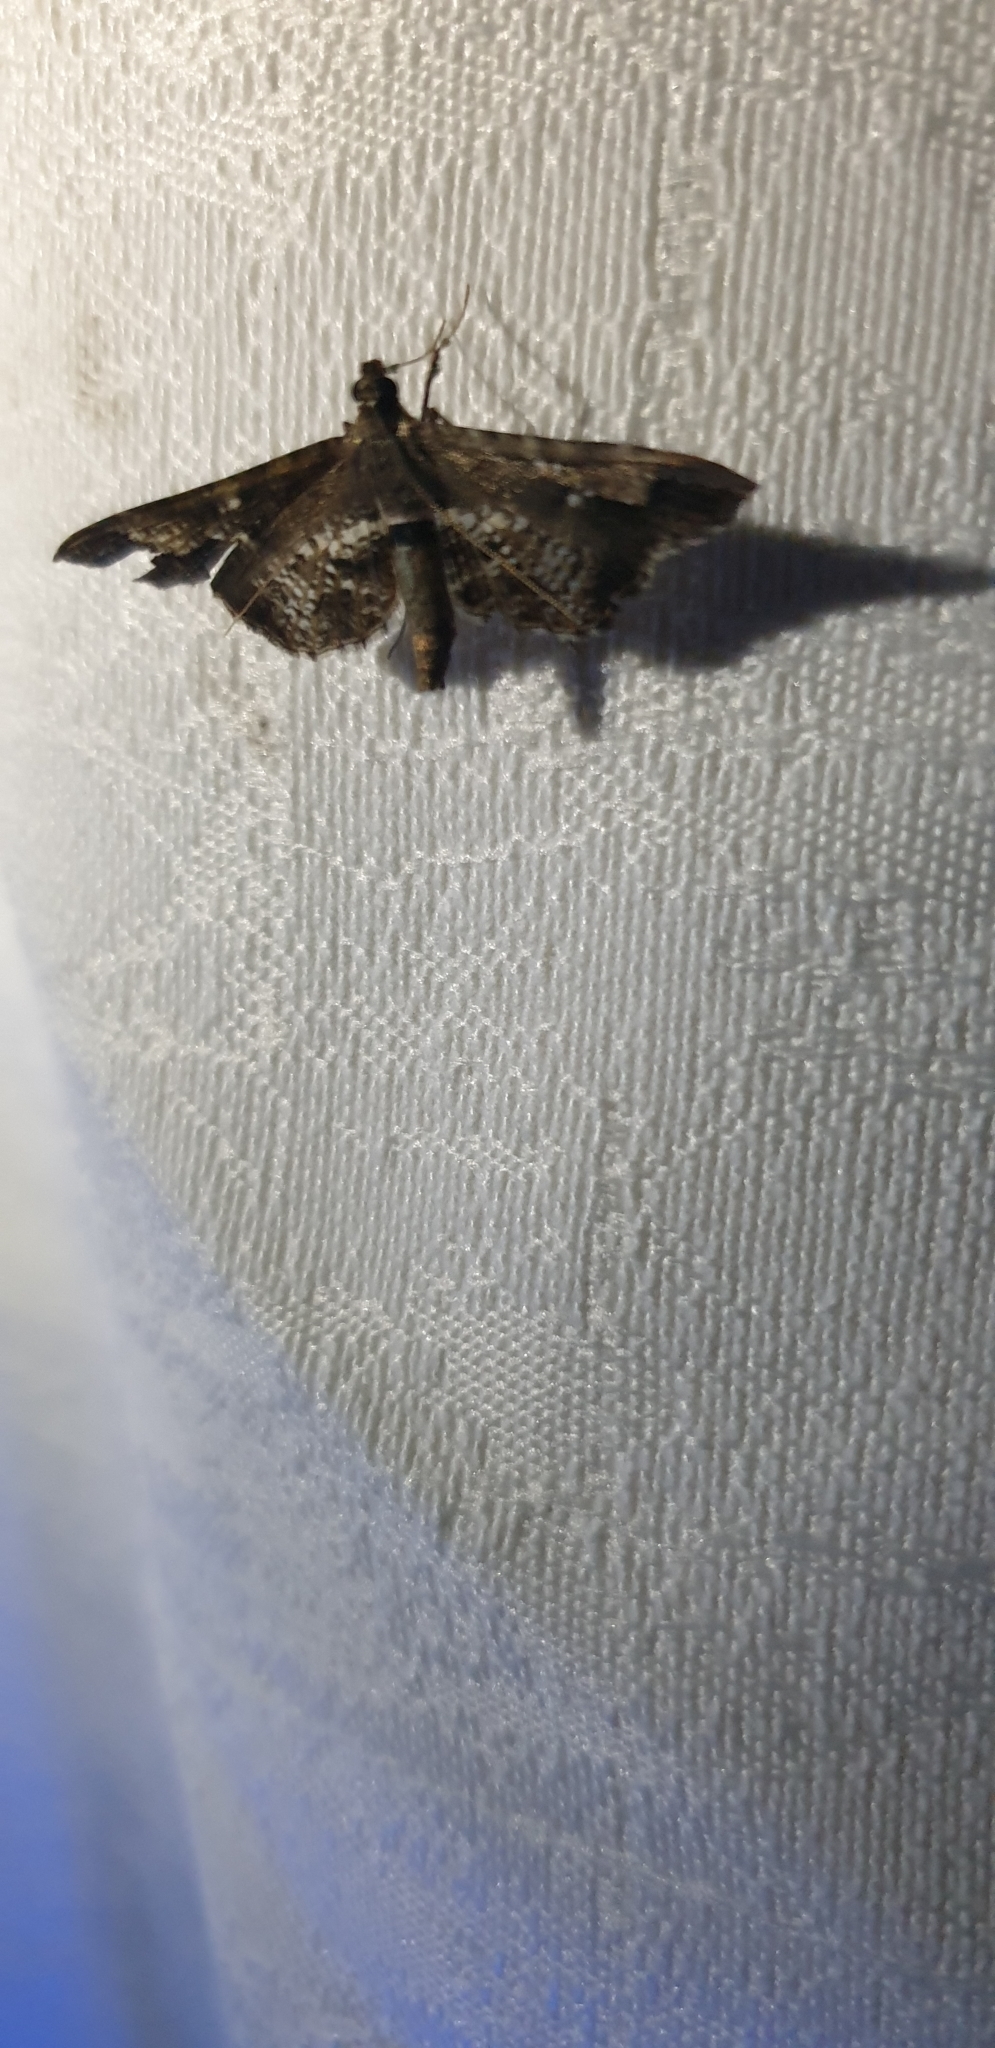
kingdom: Animalia
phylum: Arthropoda
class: Insecta
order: Lepidoptera
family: Crambidae
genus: Merodictya
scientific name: Merodictya marmorata
